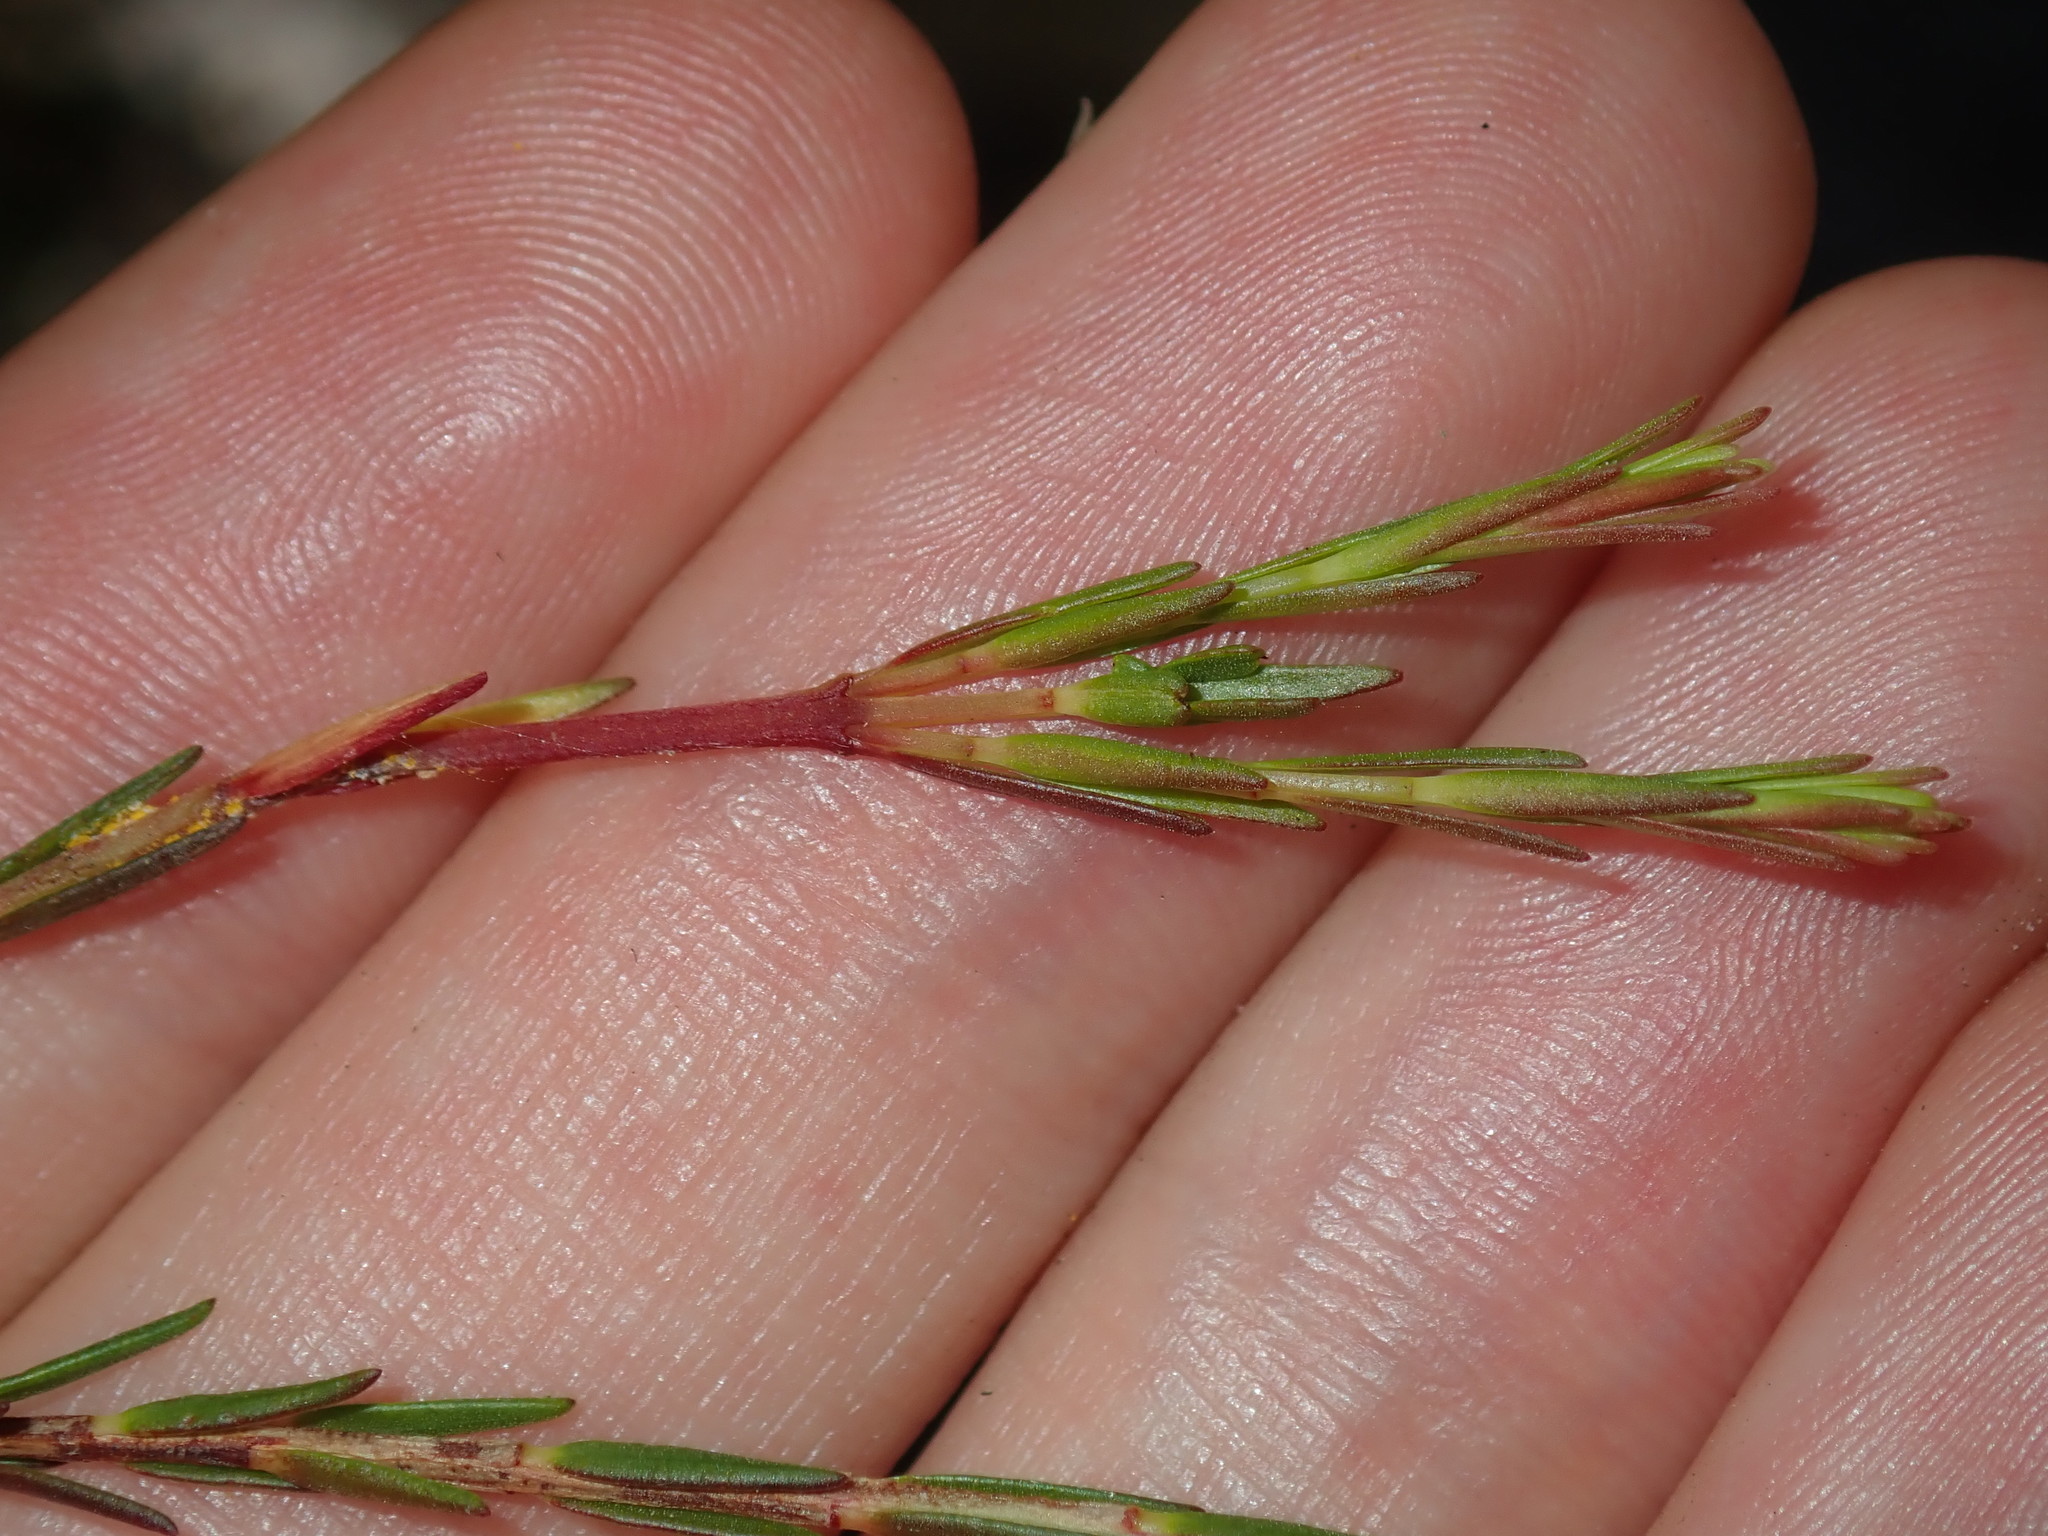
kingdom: Plantae
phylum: Tracheophyta
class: Magnoliopsida
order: Myrtales
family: Myrtaceae
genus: Ochrosperma
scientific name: Ochrosperma lineare
